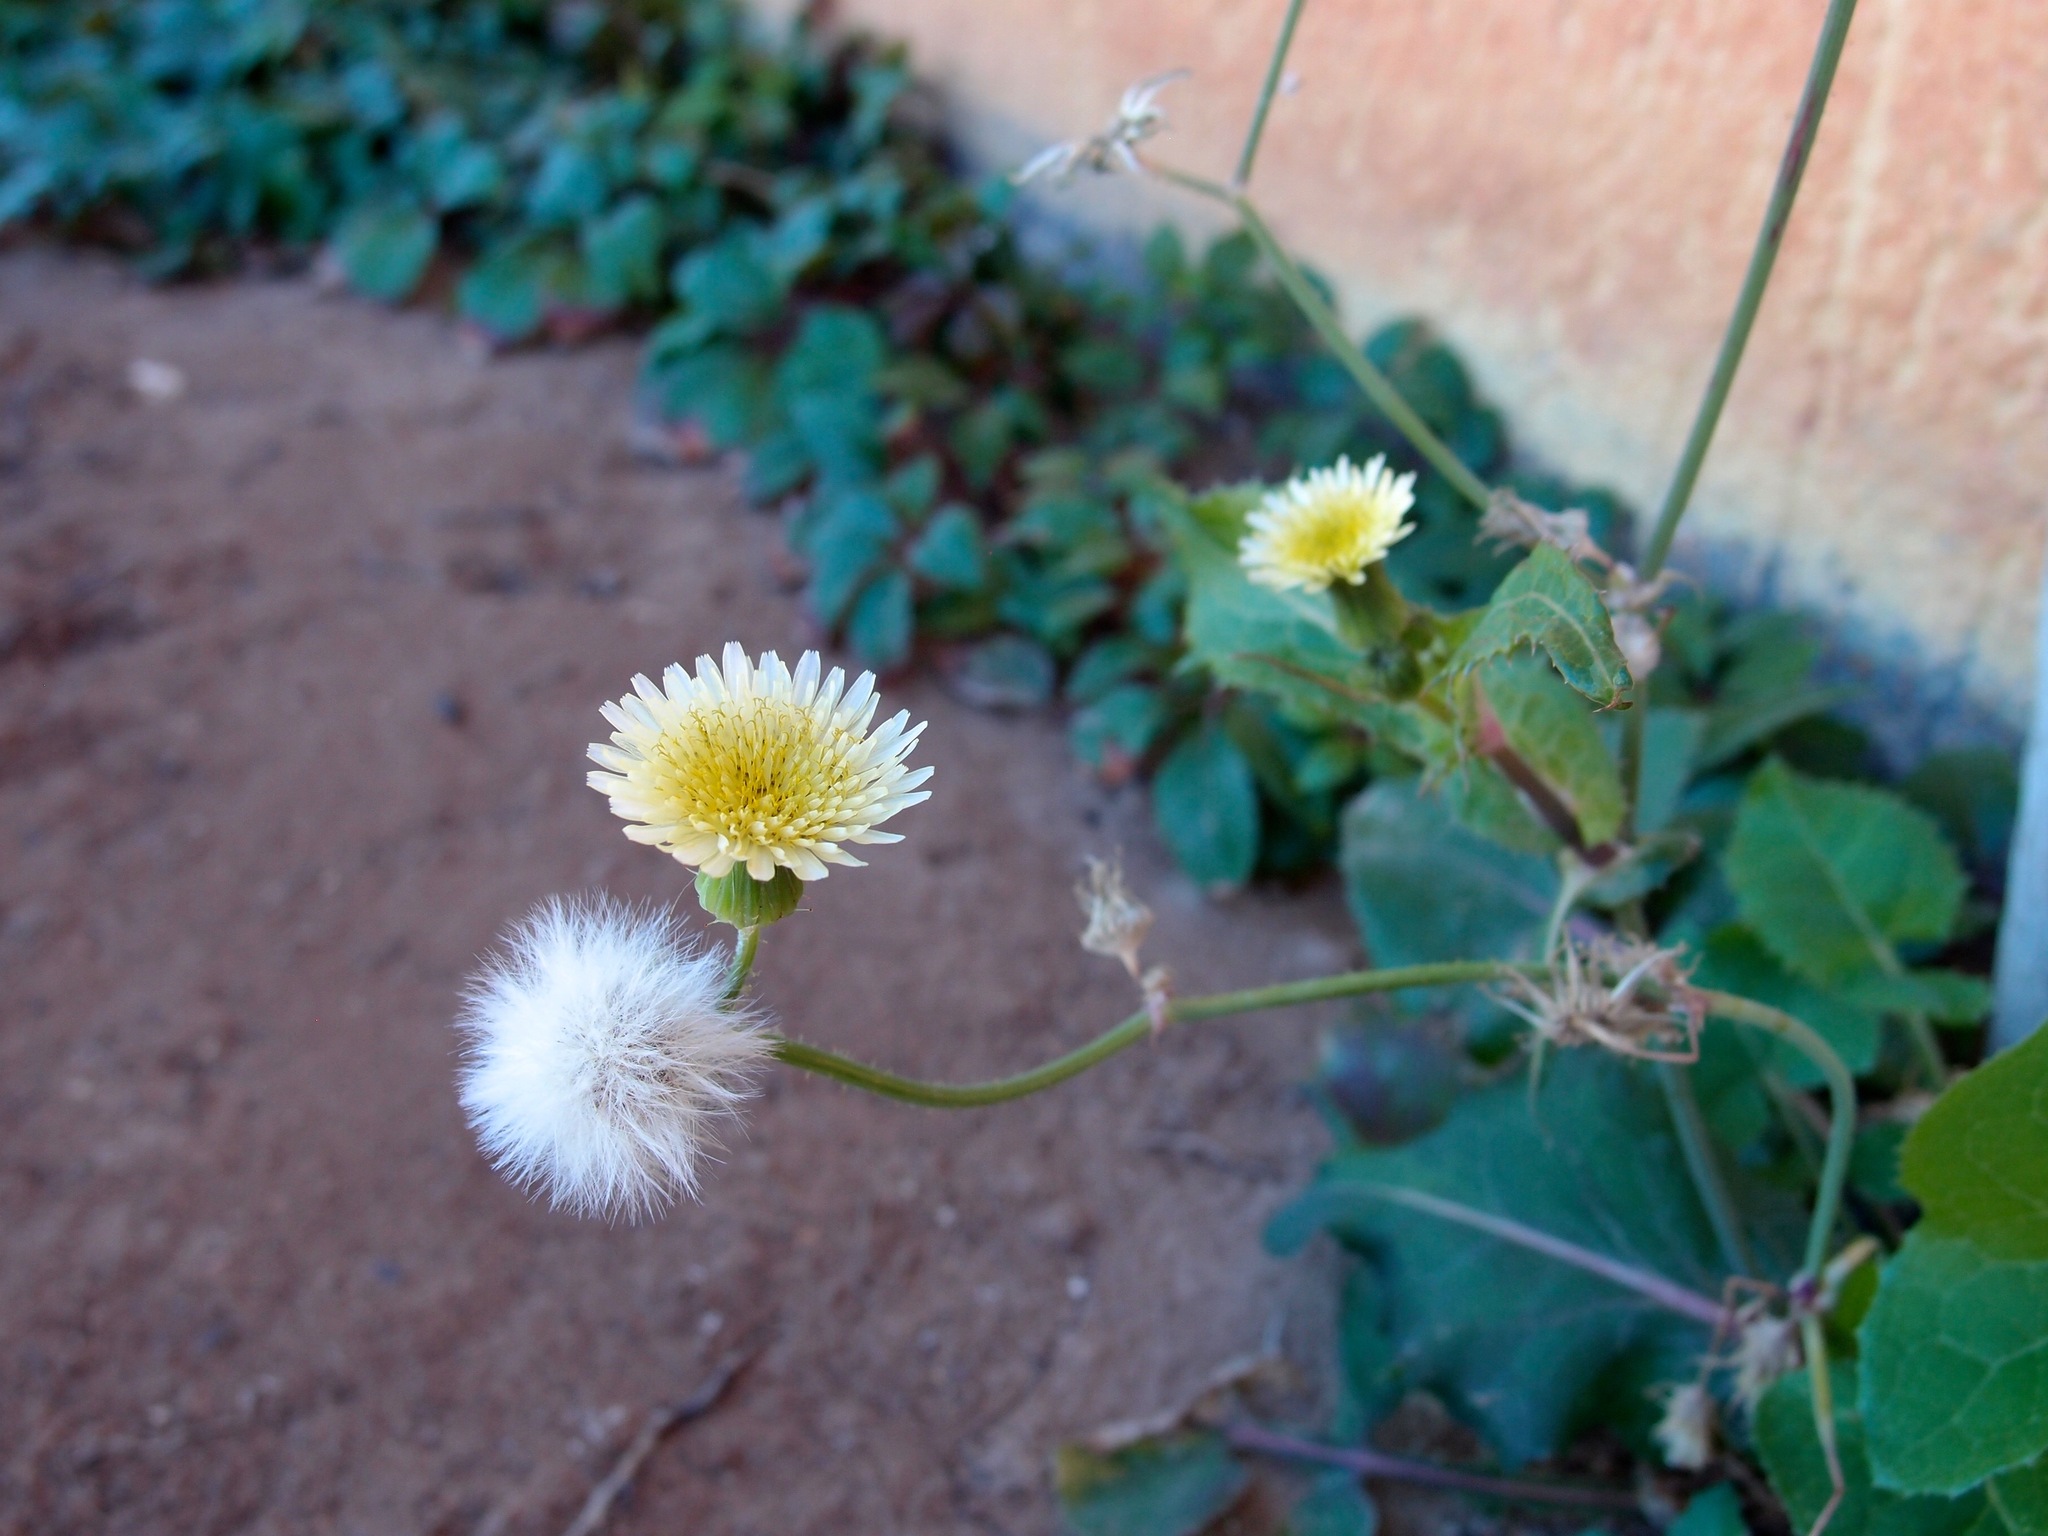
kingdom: Plantae
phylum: Tracheophyta
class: Magnoliopsida
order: Asterales
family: Asteraceae
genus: Sonchus
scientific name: Sonchus oleraceus
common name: Common sowthistle
